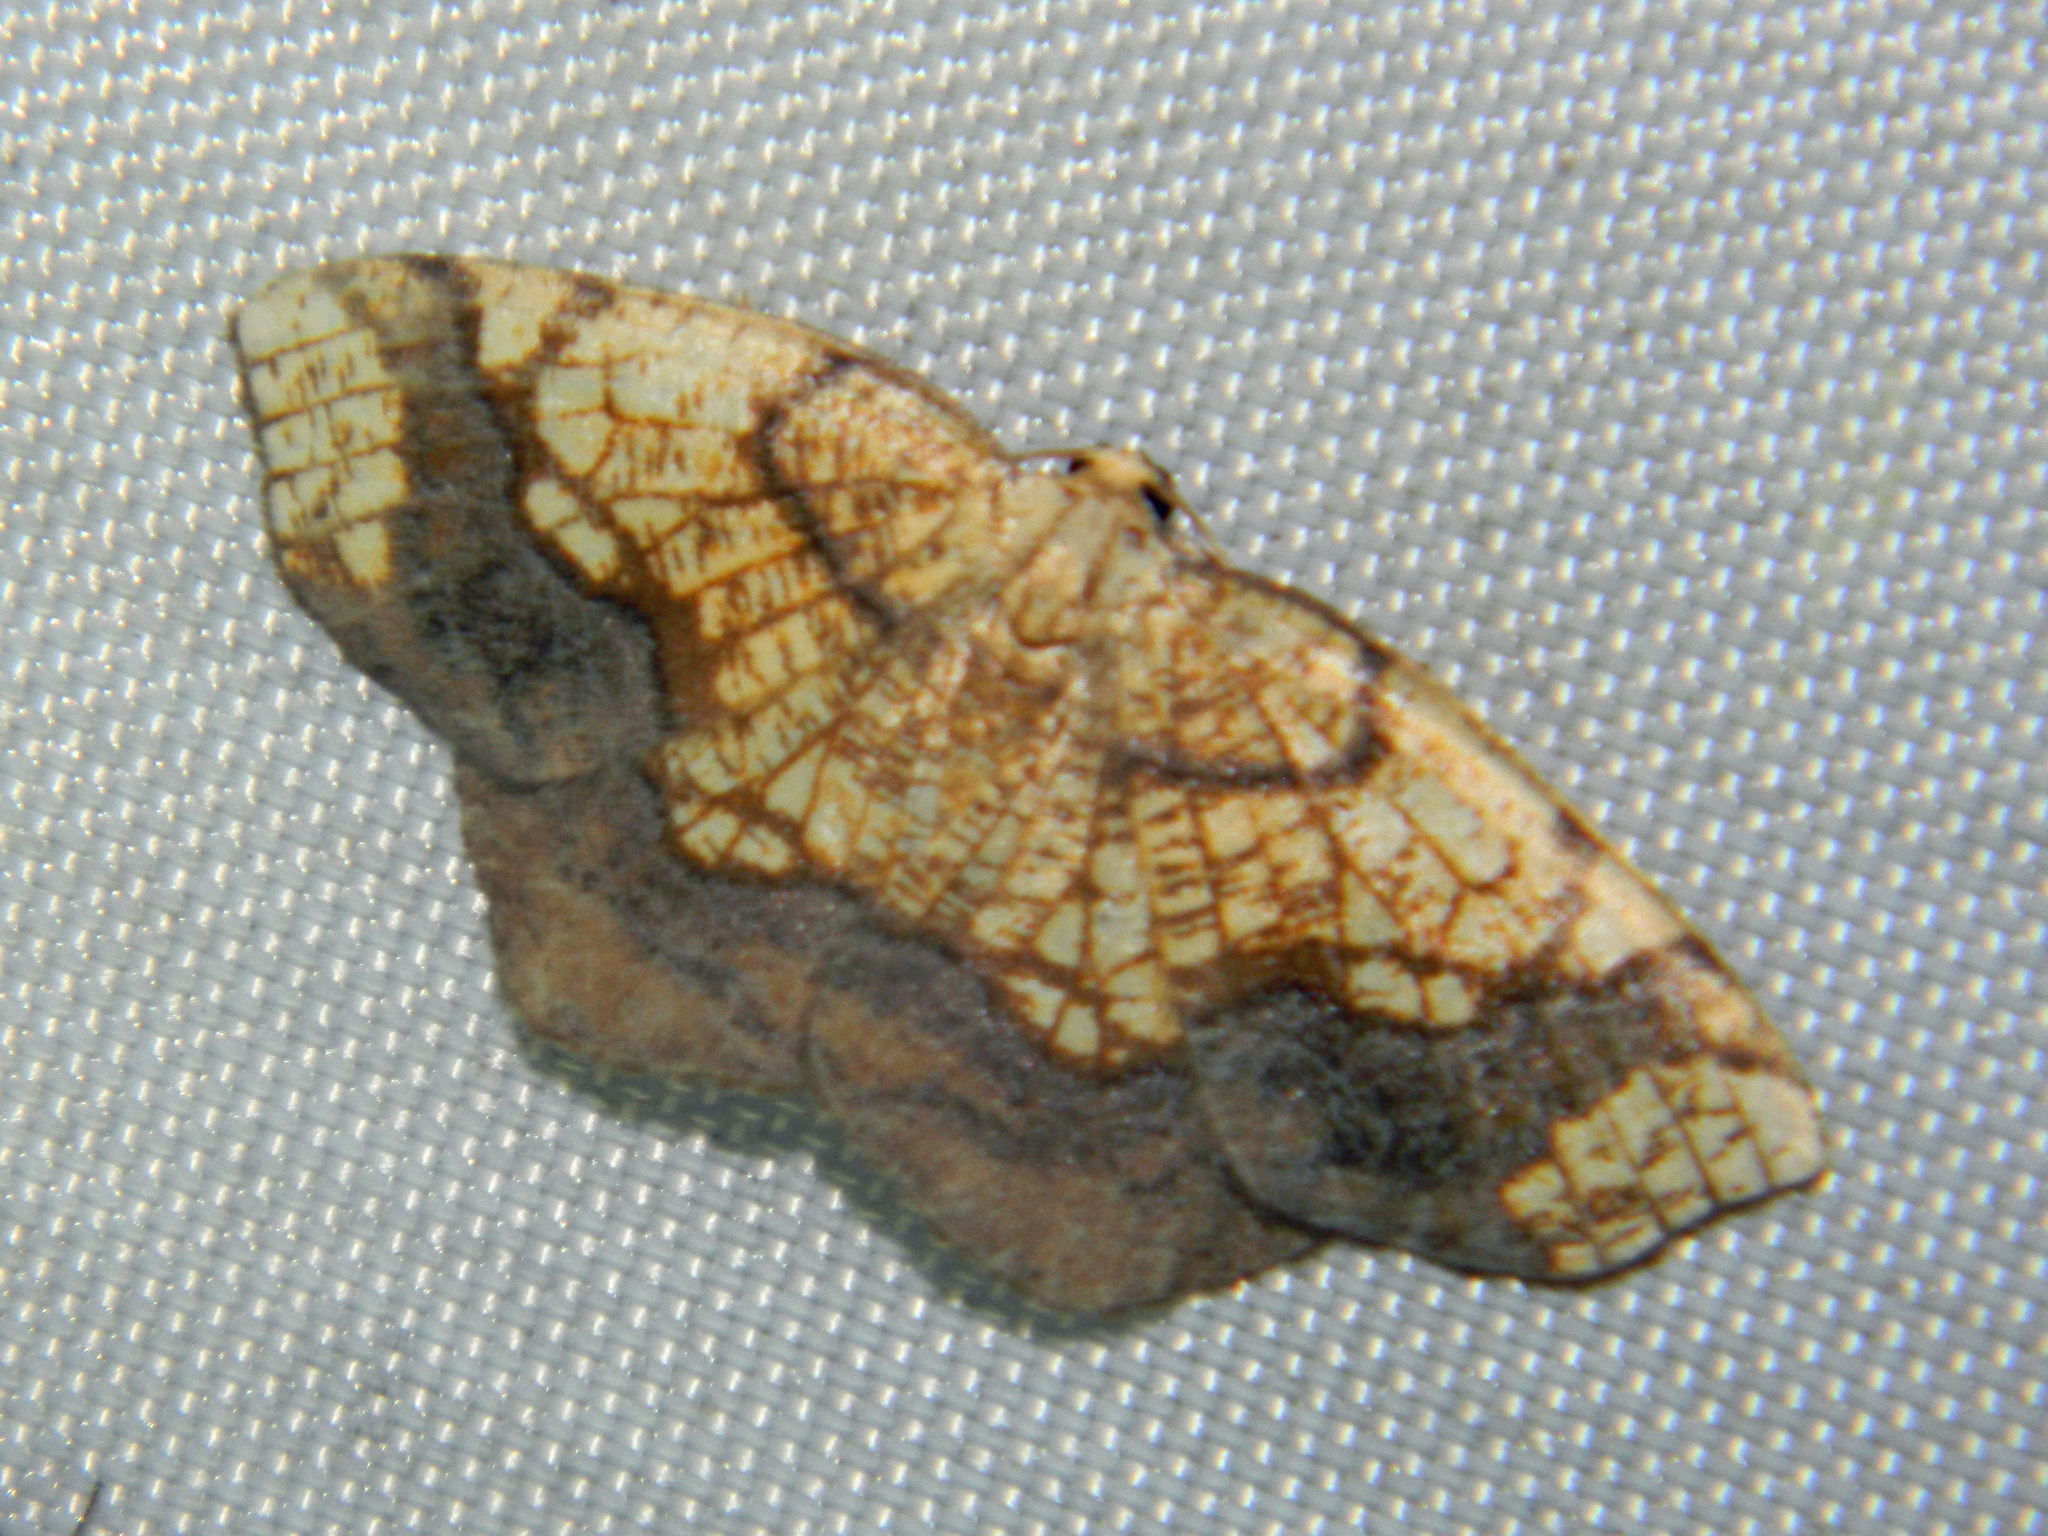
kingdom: Animalia
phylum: Arthropoda
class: Insecta
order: Lepidoptera
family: Geometridae
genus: Nematocampa
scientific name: Nematocampa resistaria
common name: Horned spanworm moth
